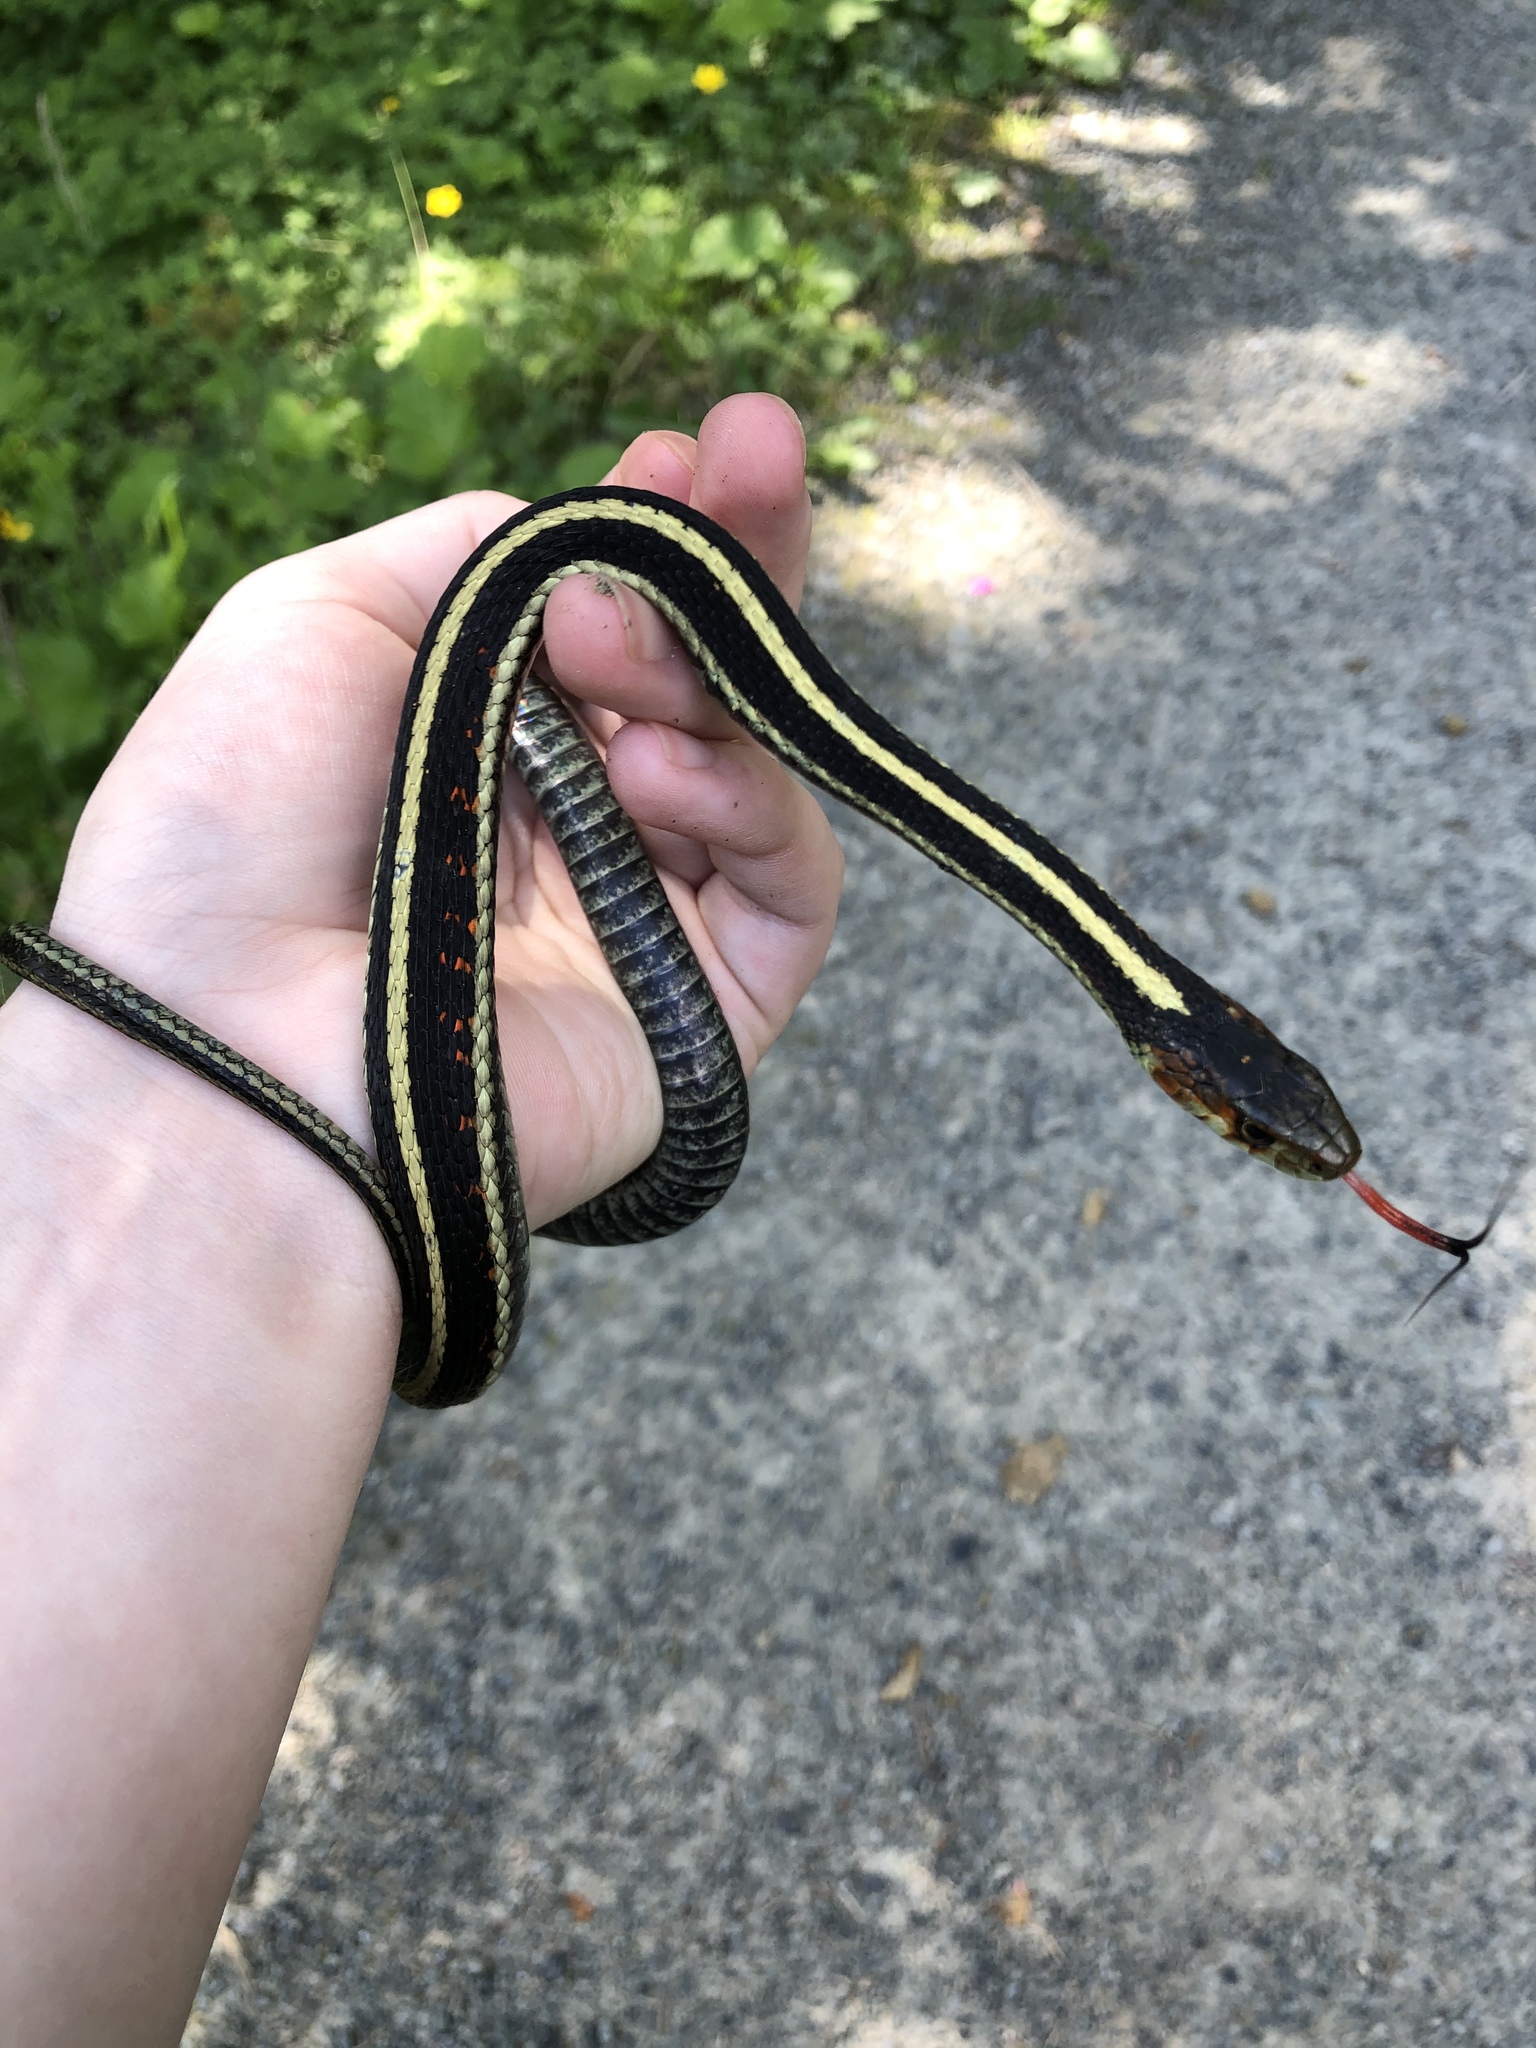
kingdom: Animalia
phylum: Chordata
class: Squamata
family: Colubridae
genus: Thamnophis
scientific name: Thamnophis sirtalis
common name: Common garter snake
